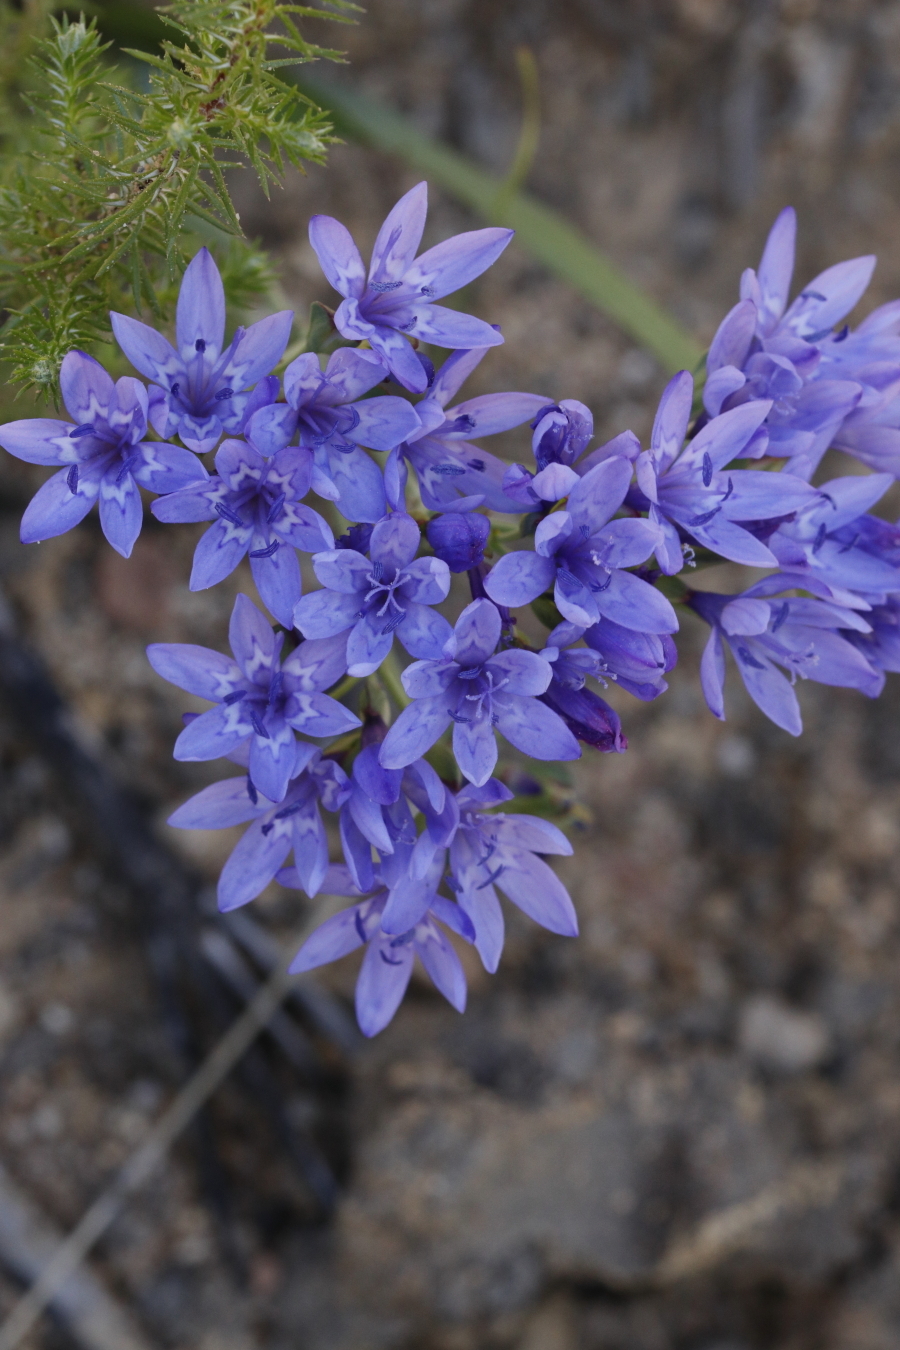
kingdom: Plantae
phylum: Tracheophyta
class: Liliopsida
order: Asparagales
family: Iridaceae
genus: Codonorhiza
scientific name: Codonorhiza corymbosa
